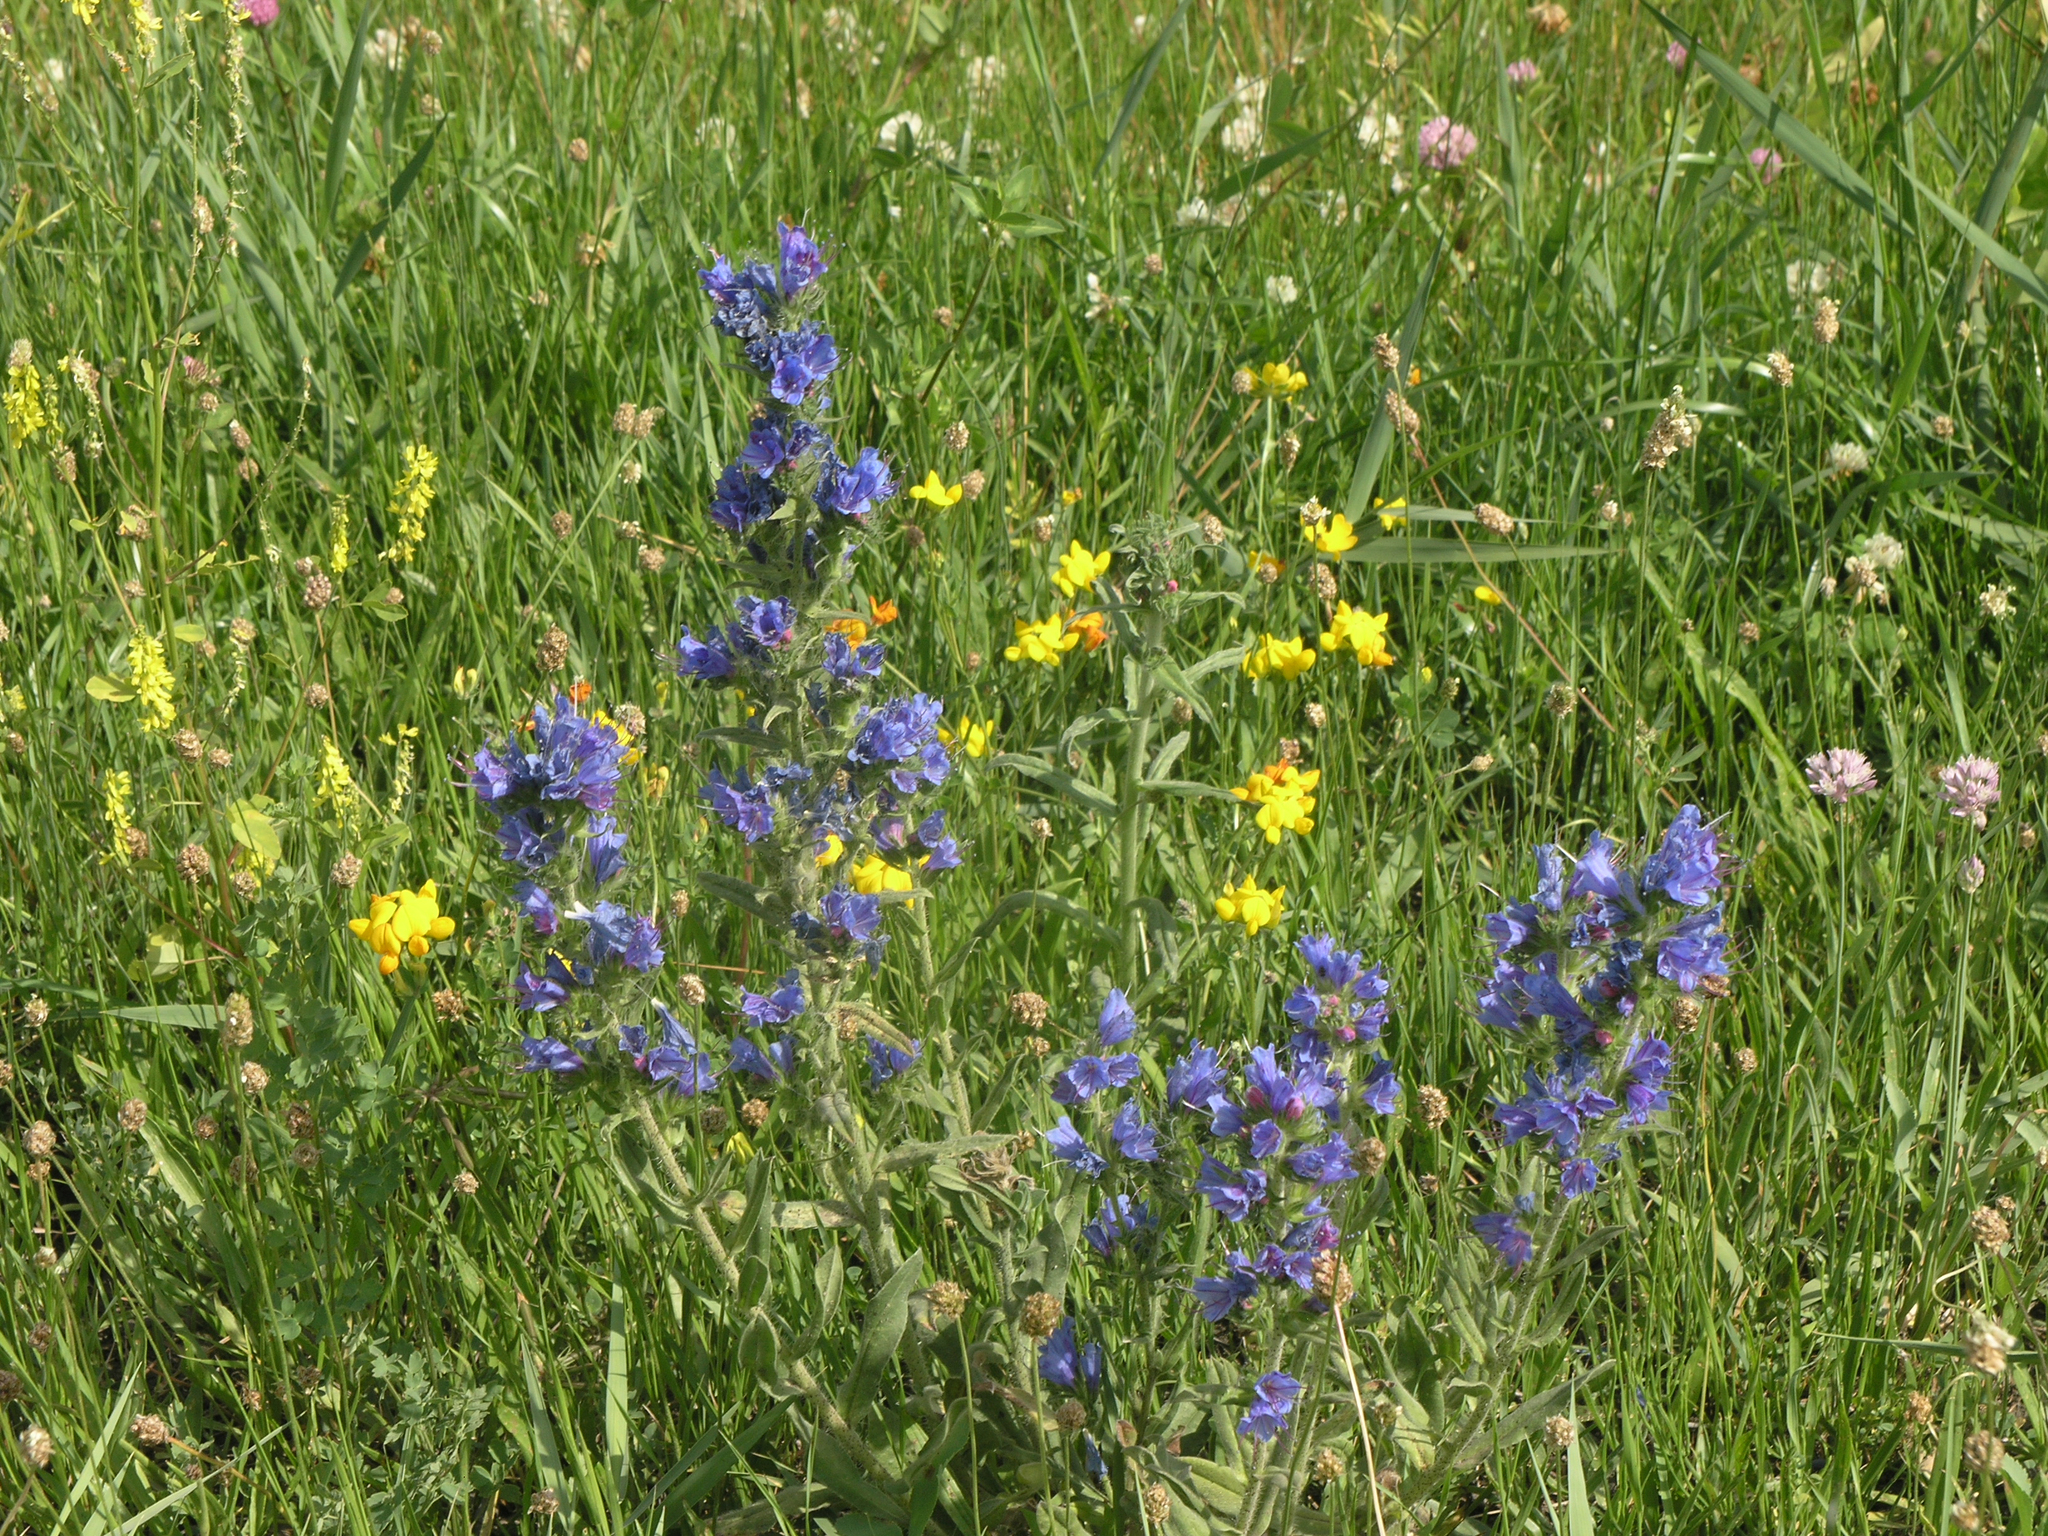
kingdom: Plantae
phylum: Tracheophyta
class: Magnoliopsida
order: Boraginales
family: Boraginaceae
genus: Echium
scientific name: Echium vulgare
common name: Common viper's bugloss
